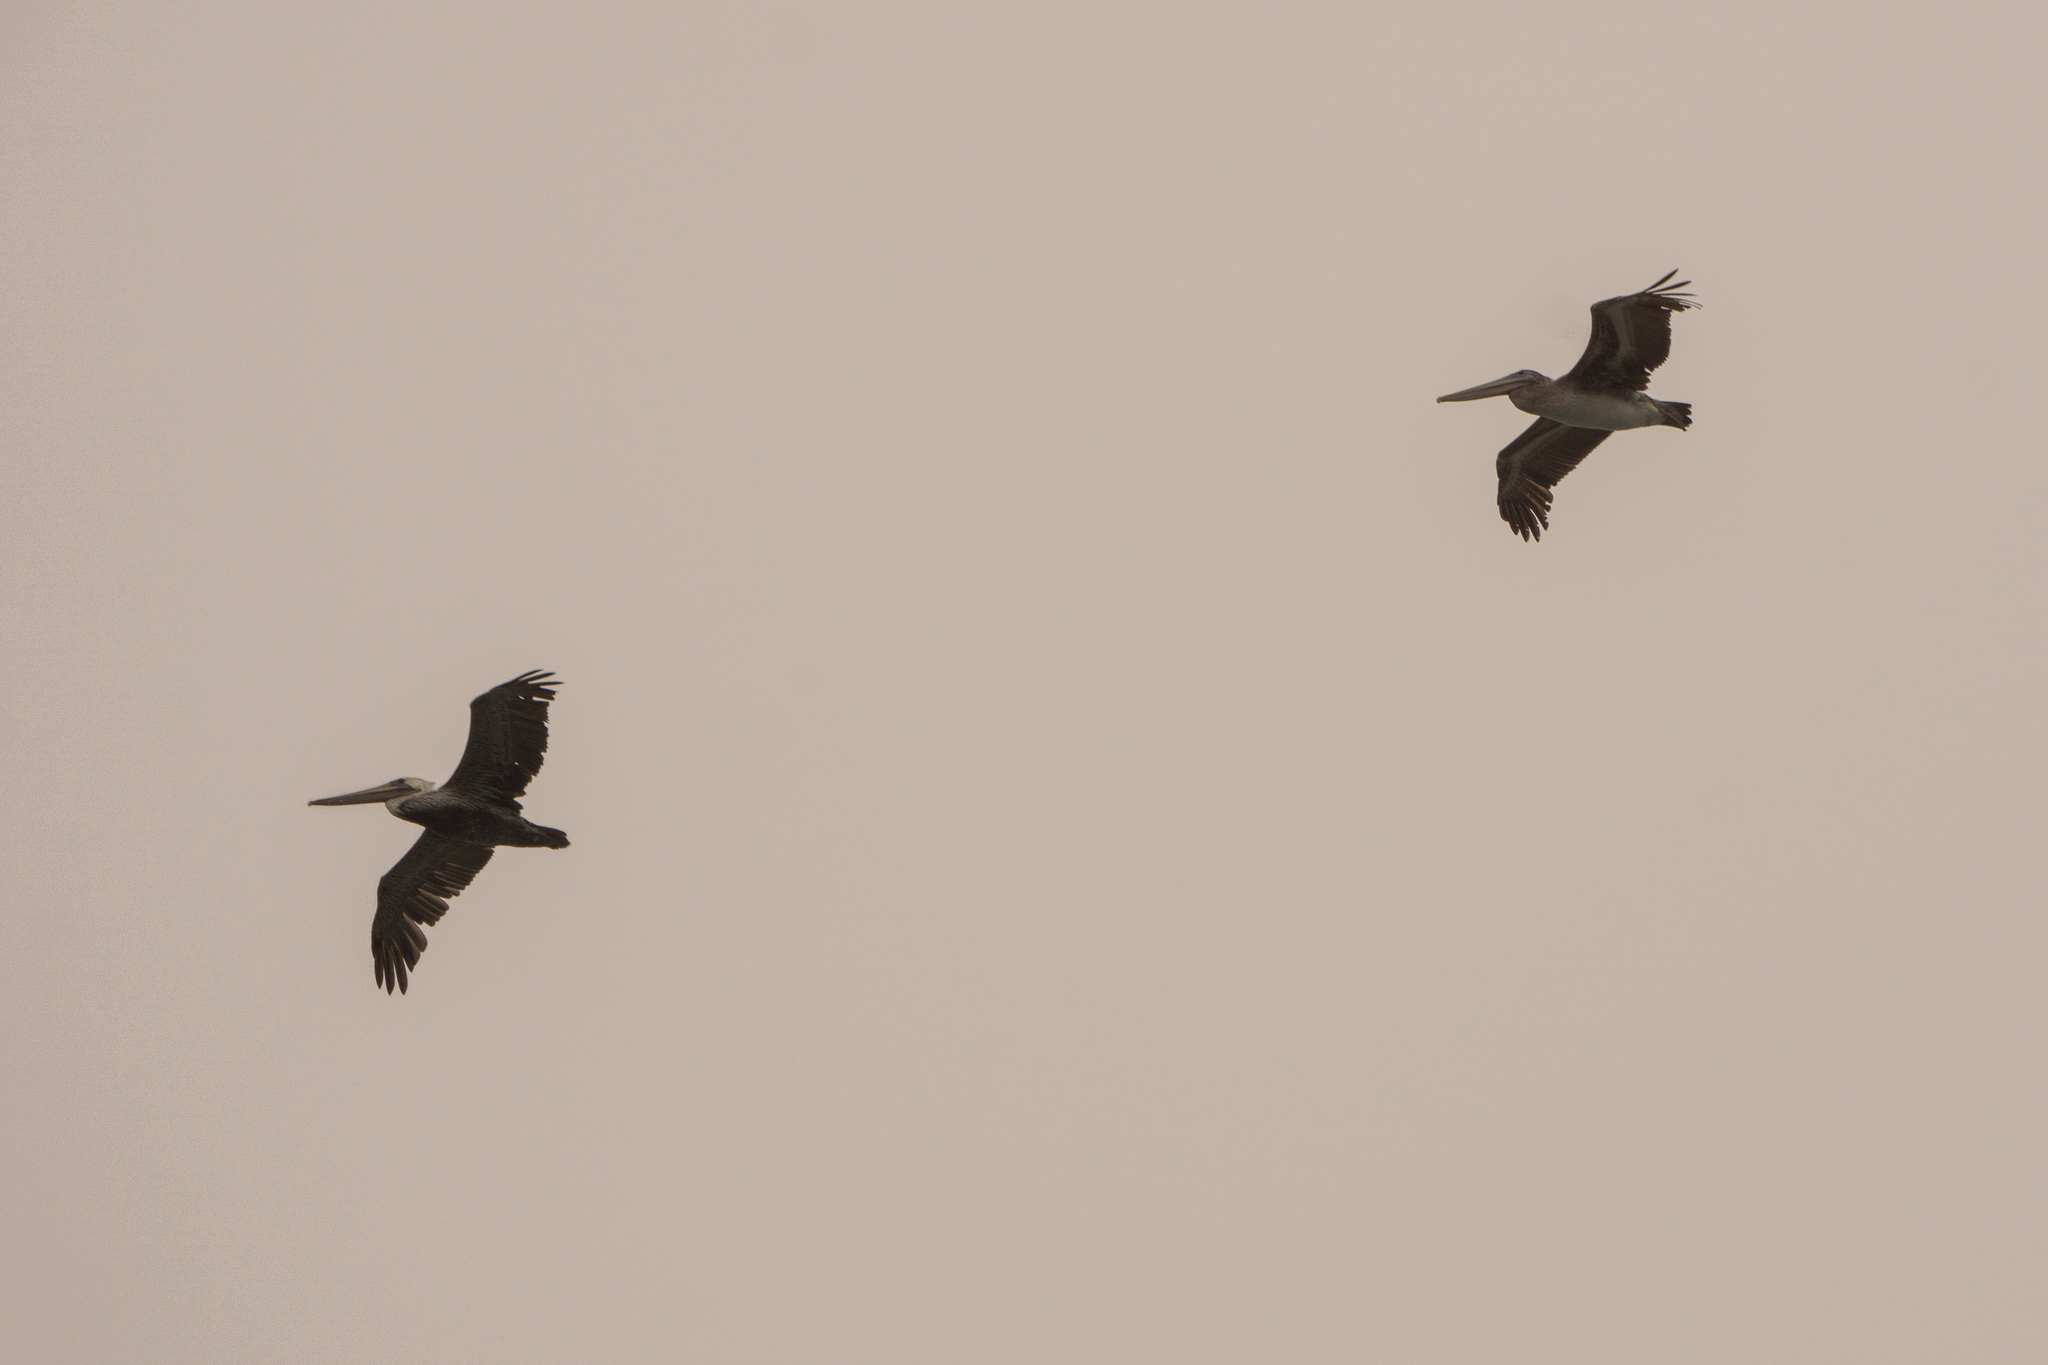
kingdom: Animalia
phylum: Chordata
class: Aves
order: Pelecaniformes
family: Pelecanidae
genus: Pelecanus
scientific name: Pelecanus occidentalis
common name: Brown pelican
